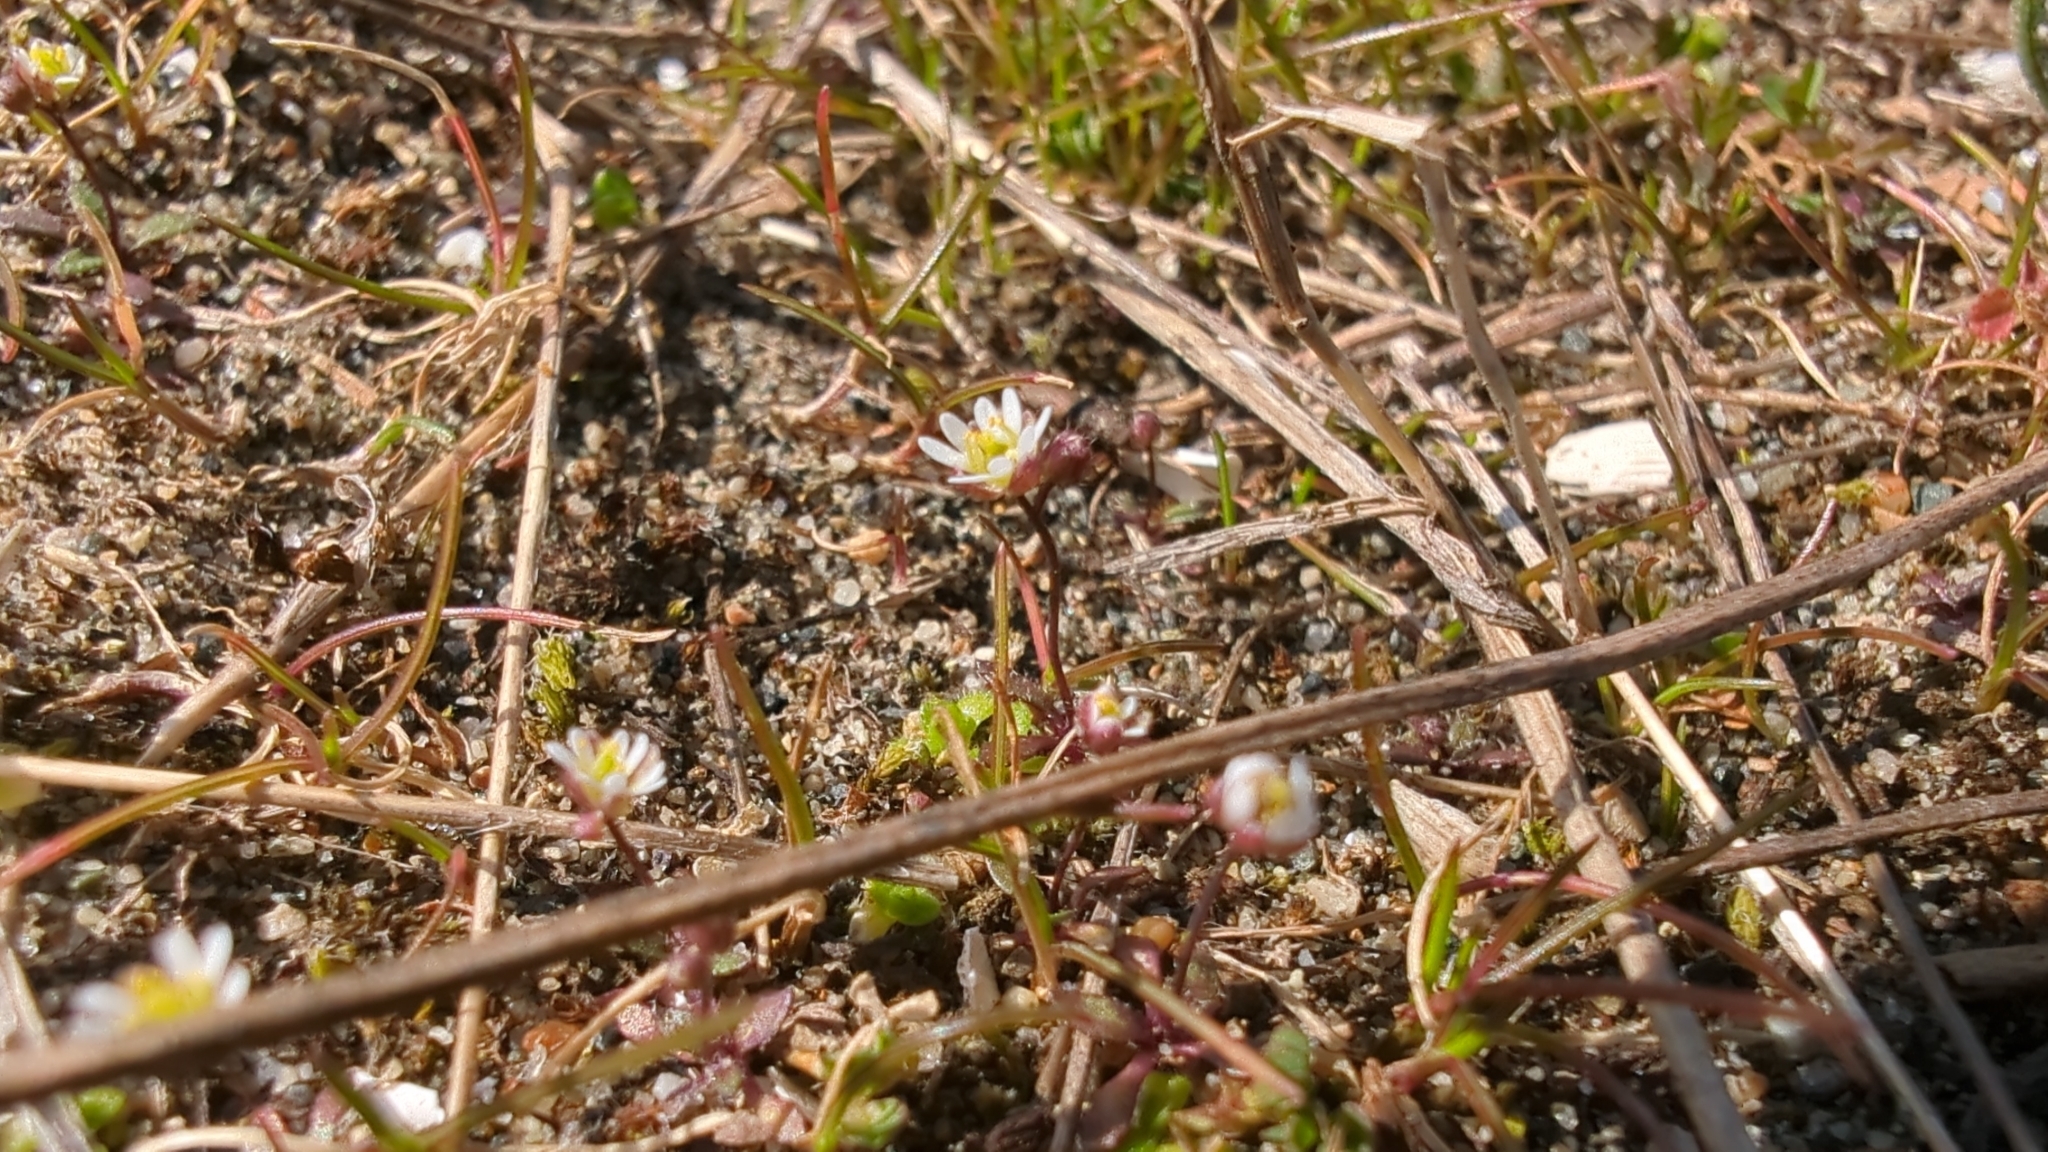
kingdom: Plantae
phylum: Tracheophyta
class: Magnoliopsida
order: Brassicales
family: Brassicaceae
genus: Draba
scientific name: Draba verna
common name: Spring draba
